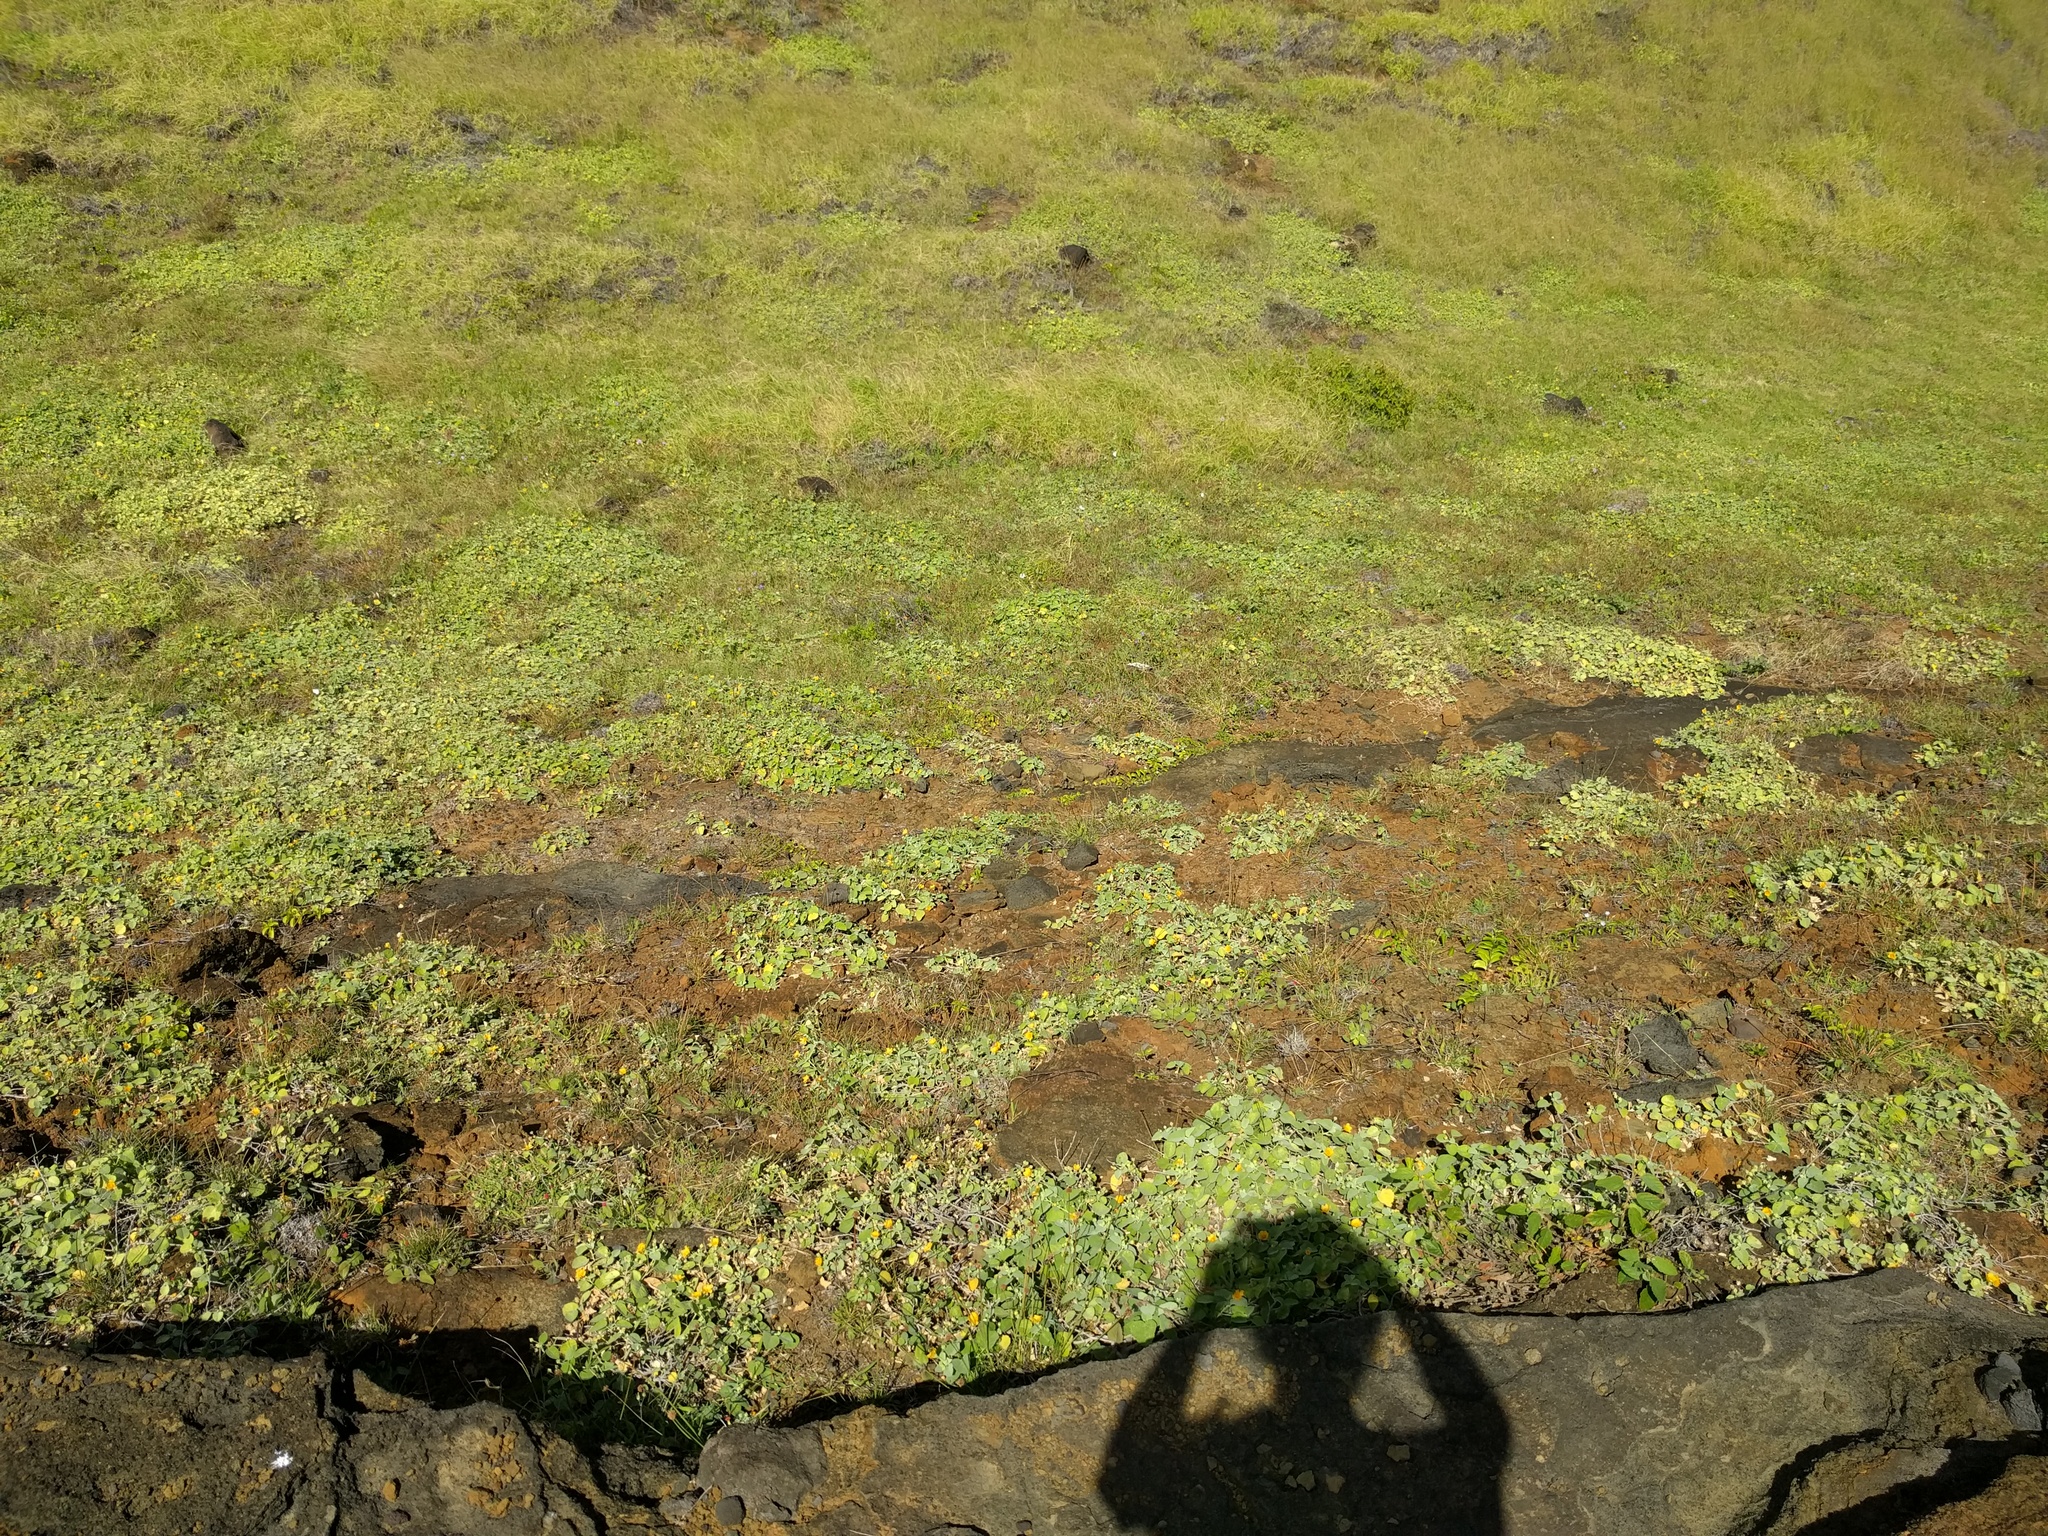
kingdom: Plantae
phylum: Tracheophyta
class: Magnoliopsida
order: Malvales
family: Malvaceae
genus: Sida
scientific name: Sida fallax
